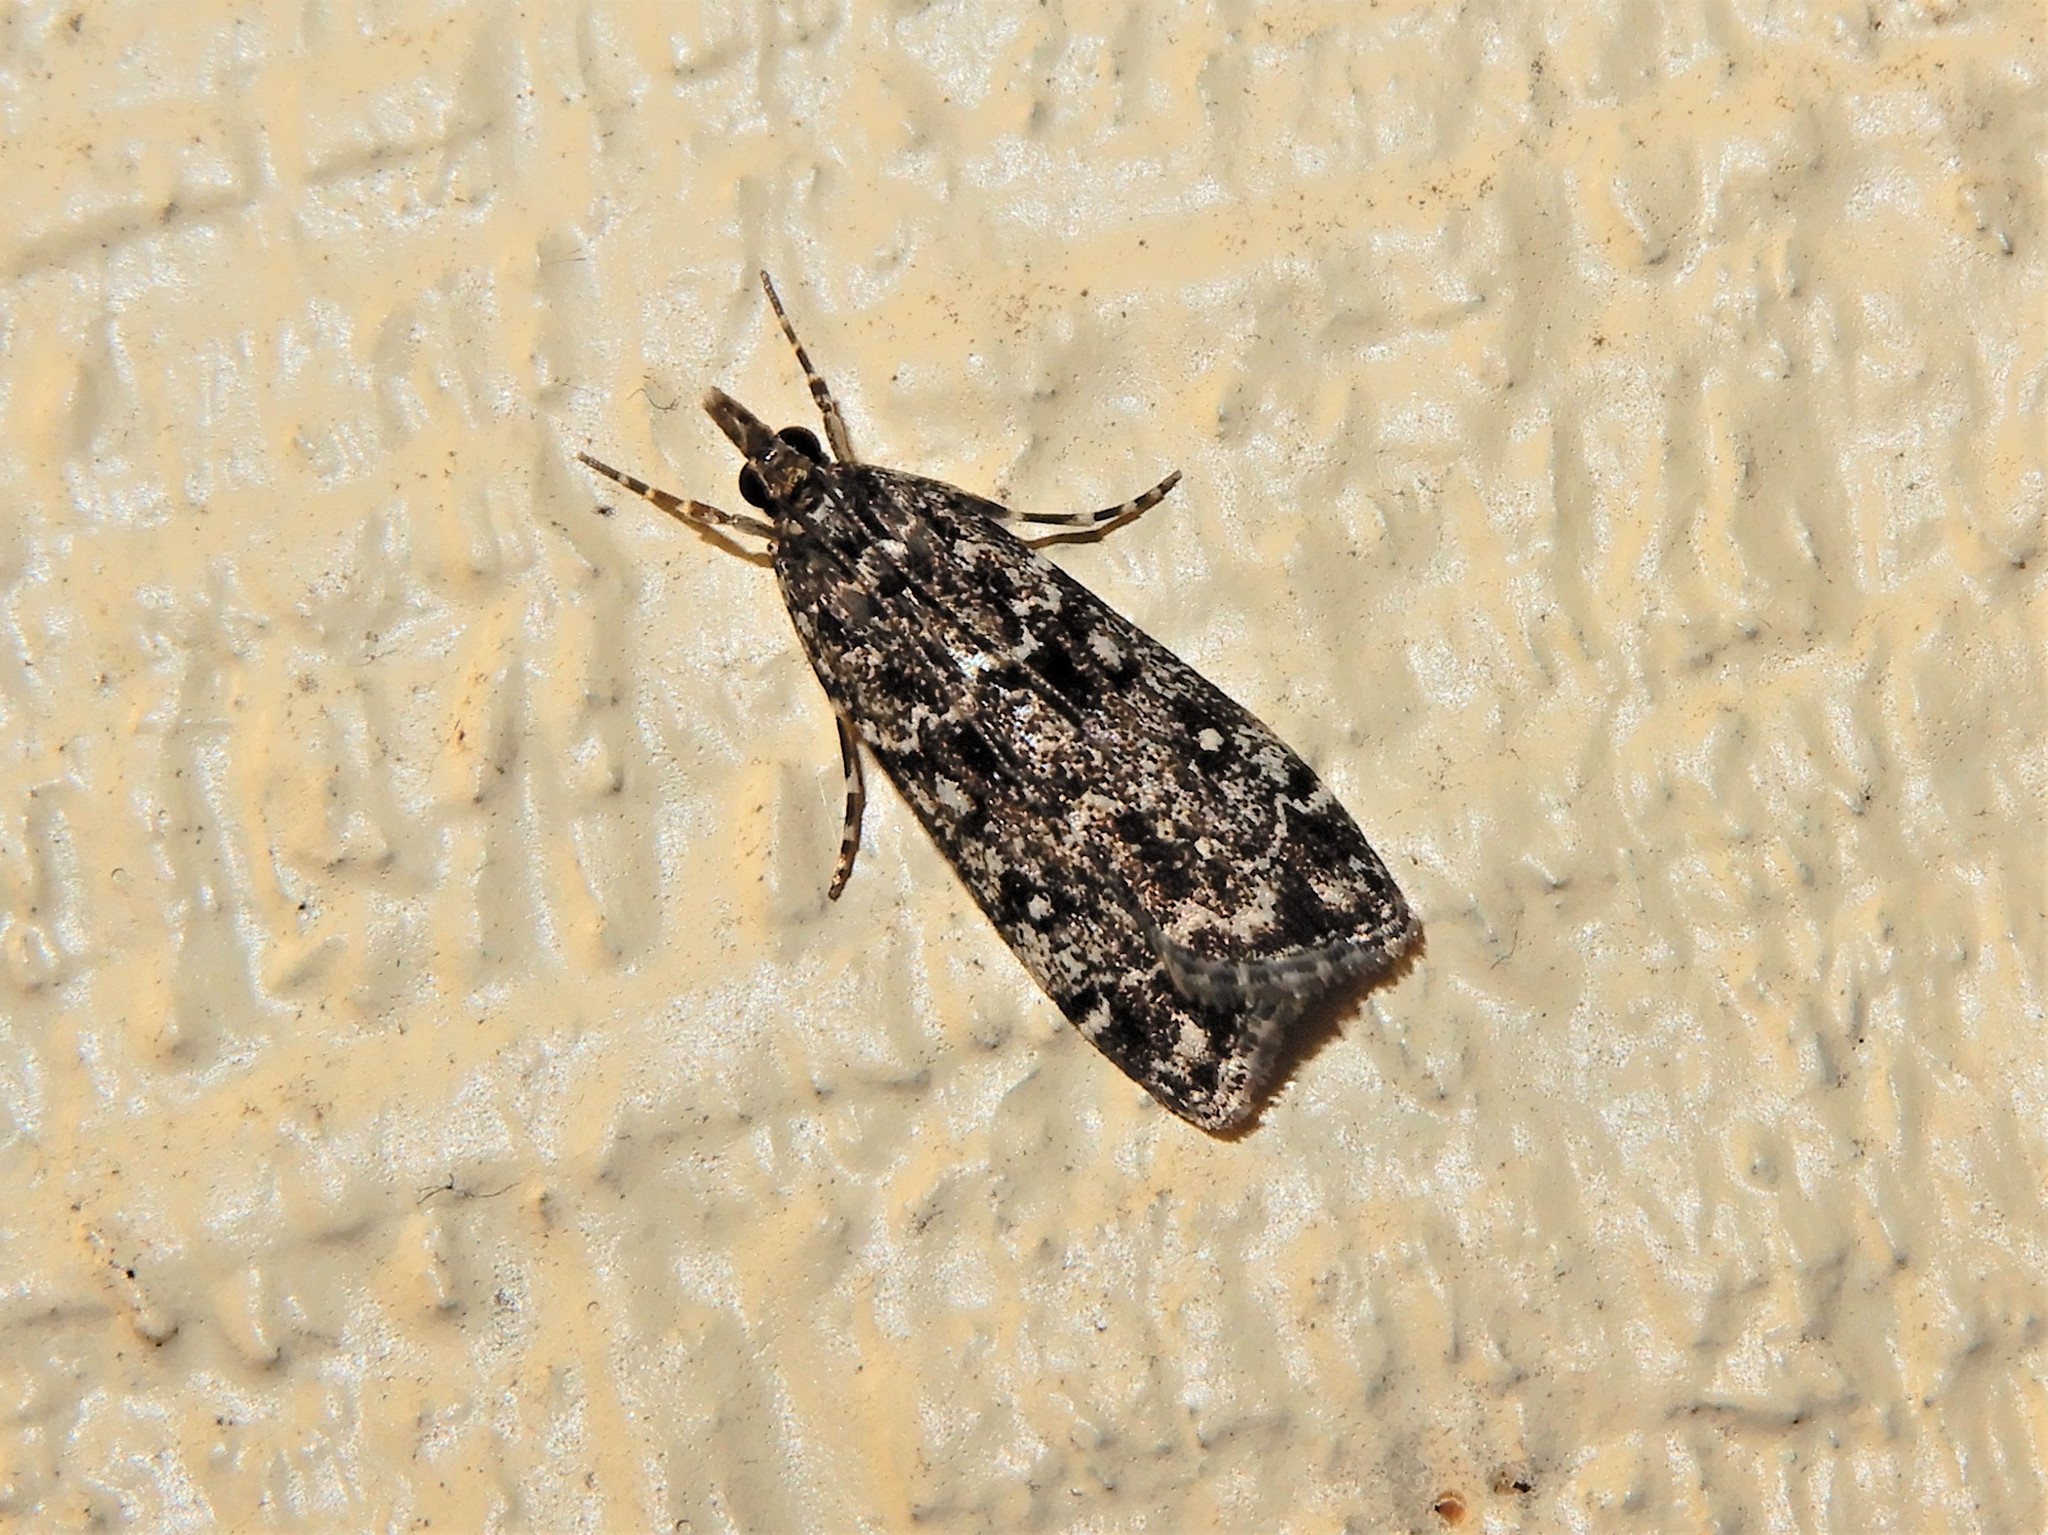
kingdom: Animalia
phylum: Arthropoda
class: Insecta
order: Lepidoptera
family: Crambidae
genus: Eudonia
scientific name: Eudonia philerga
